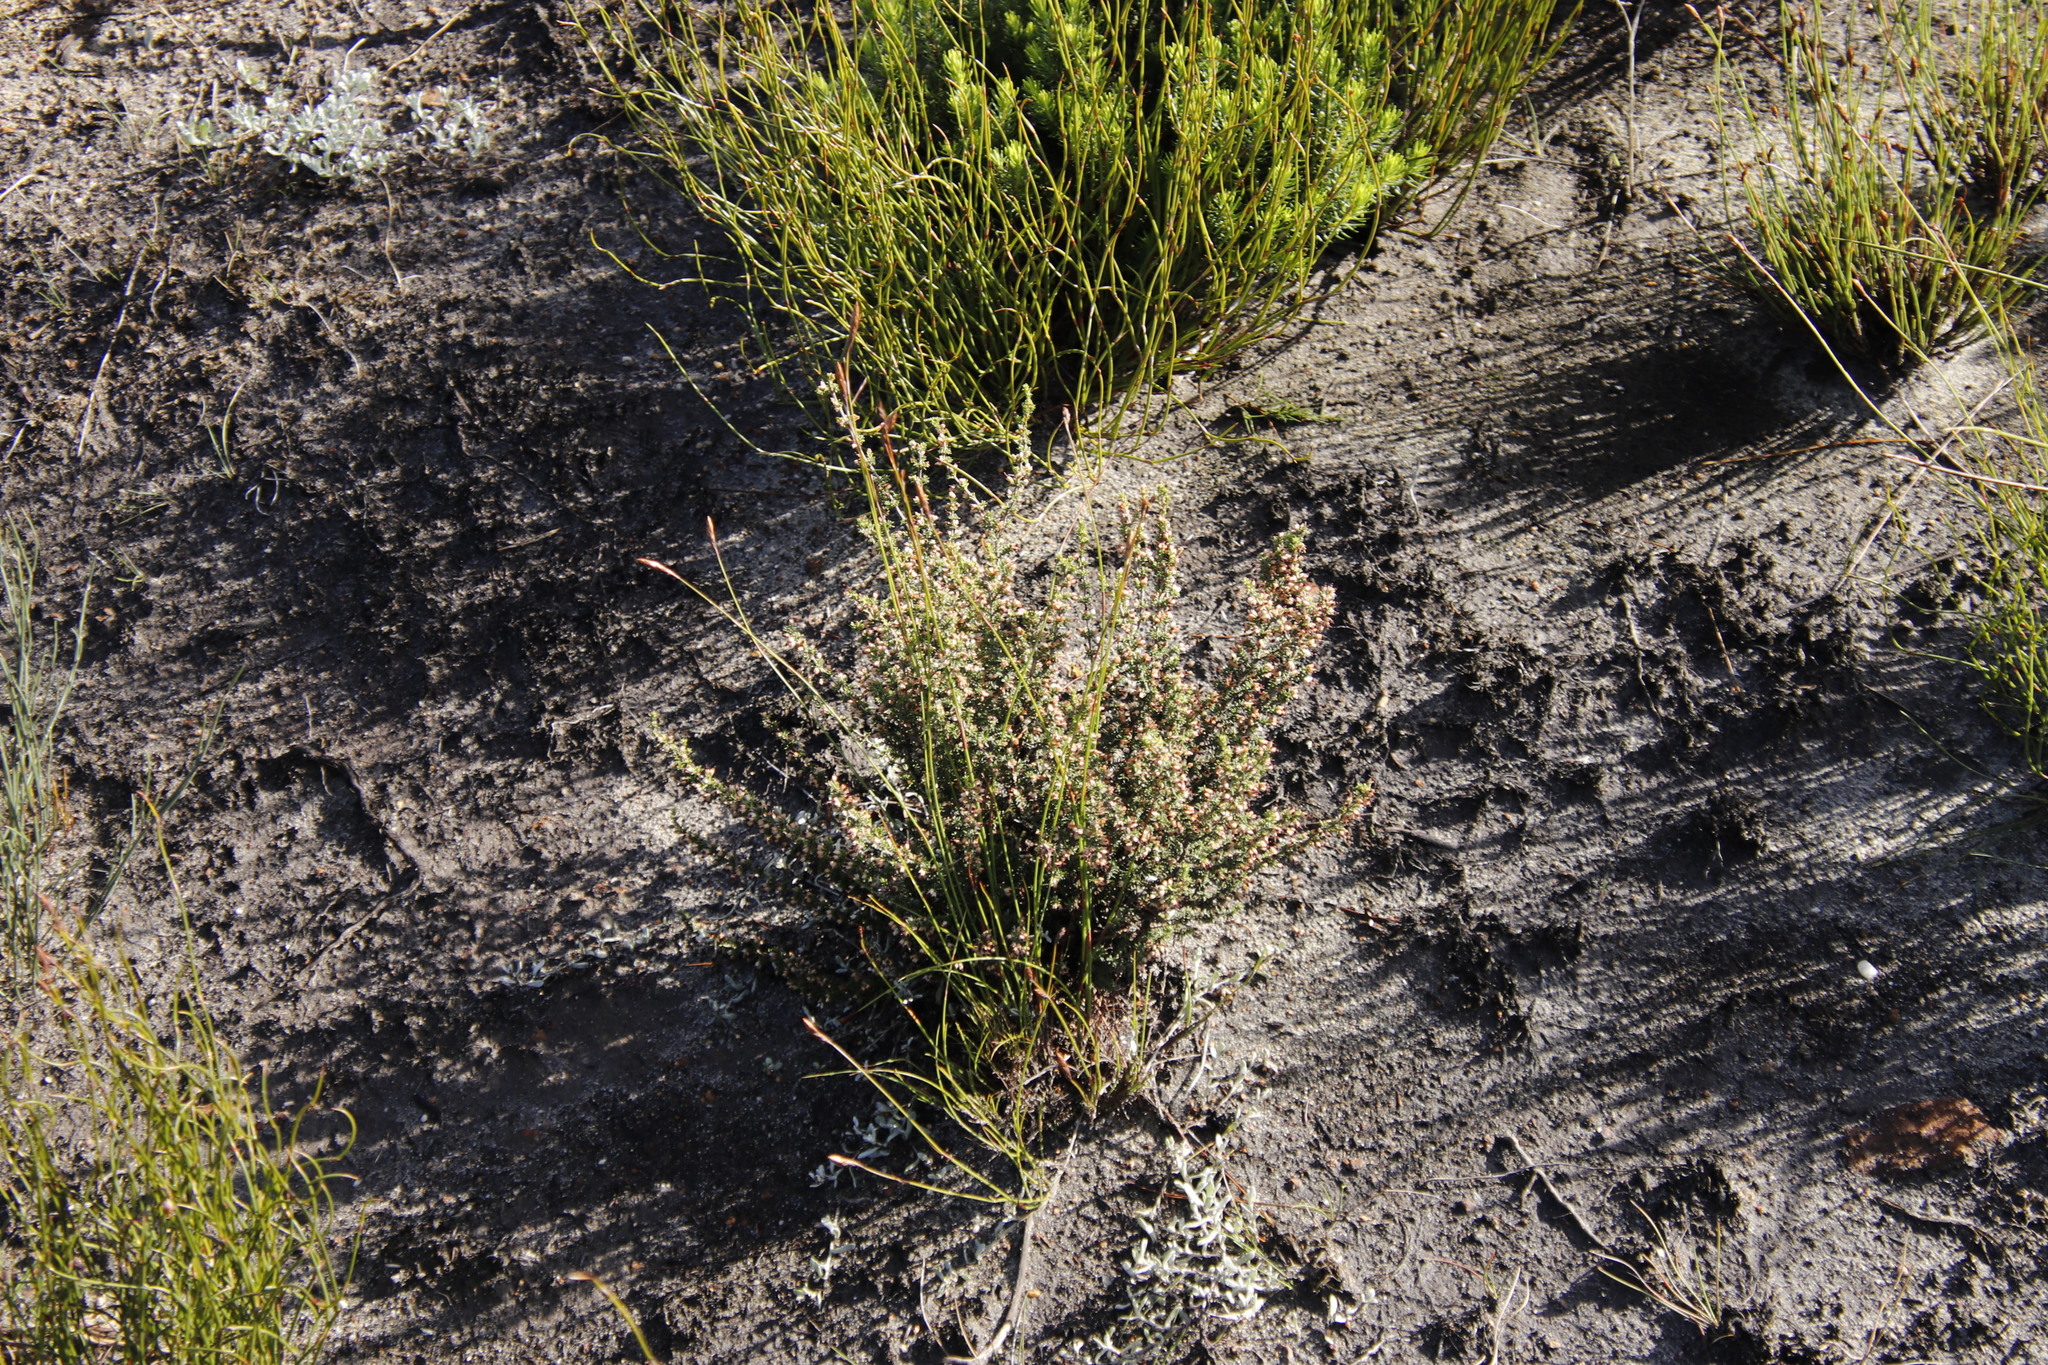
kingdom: Plantae
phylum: Tracheophyta
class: Magnoliopsida
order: Ericales
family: Ericaceae
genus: Erica
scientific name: Erica lasciva
